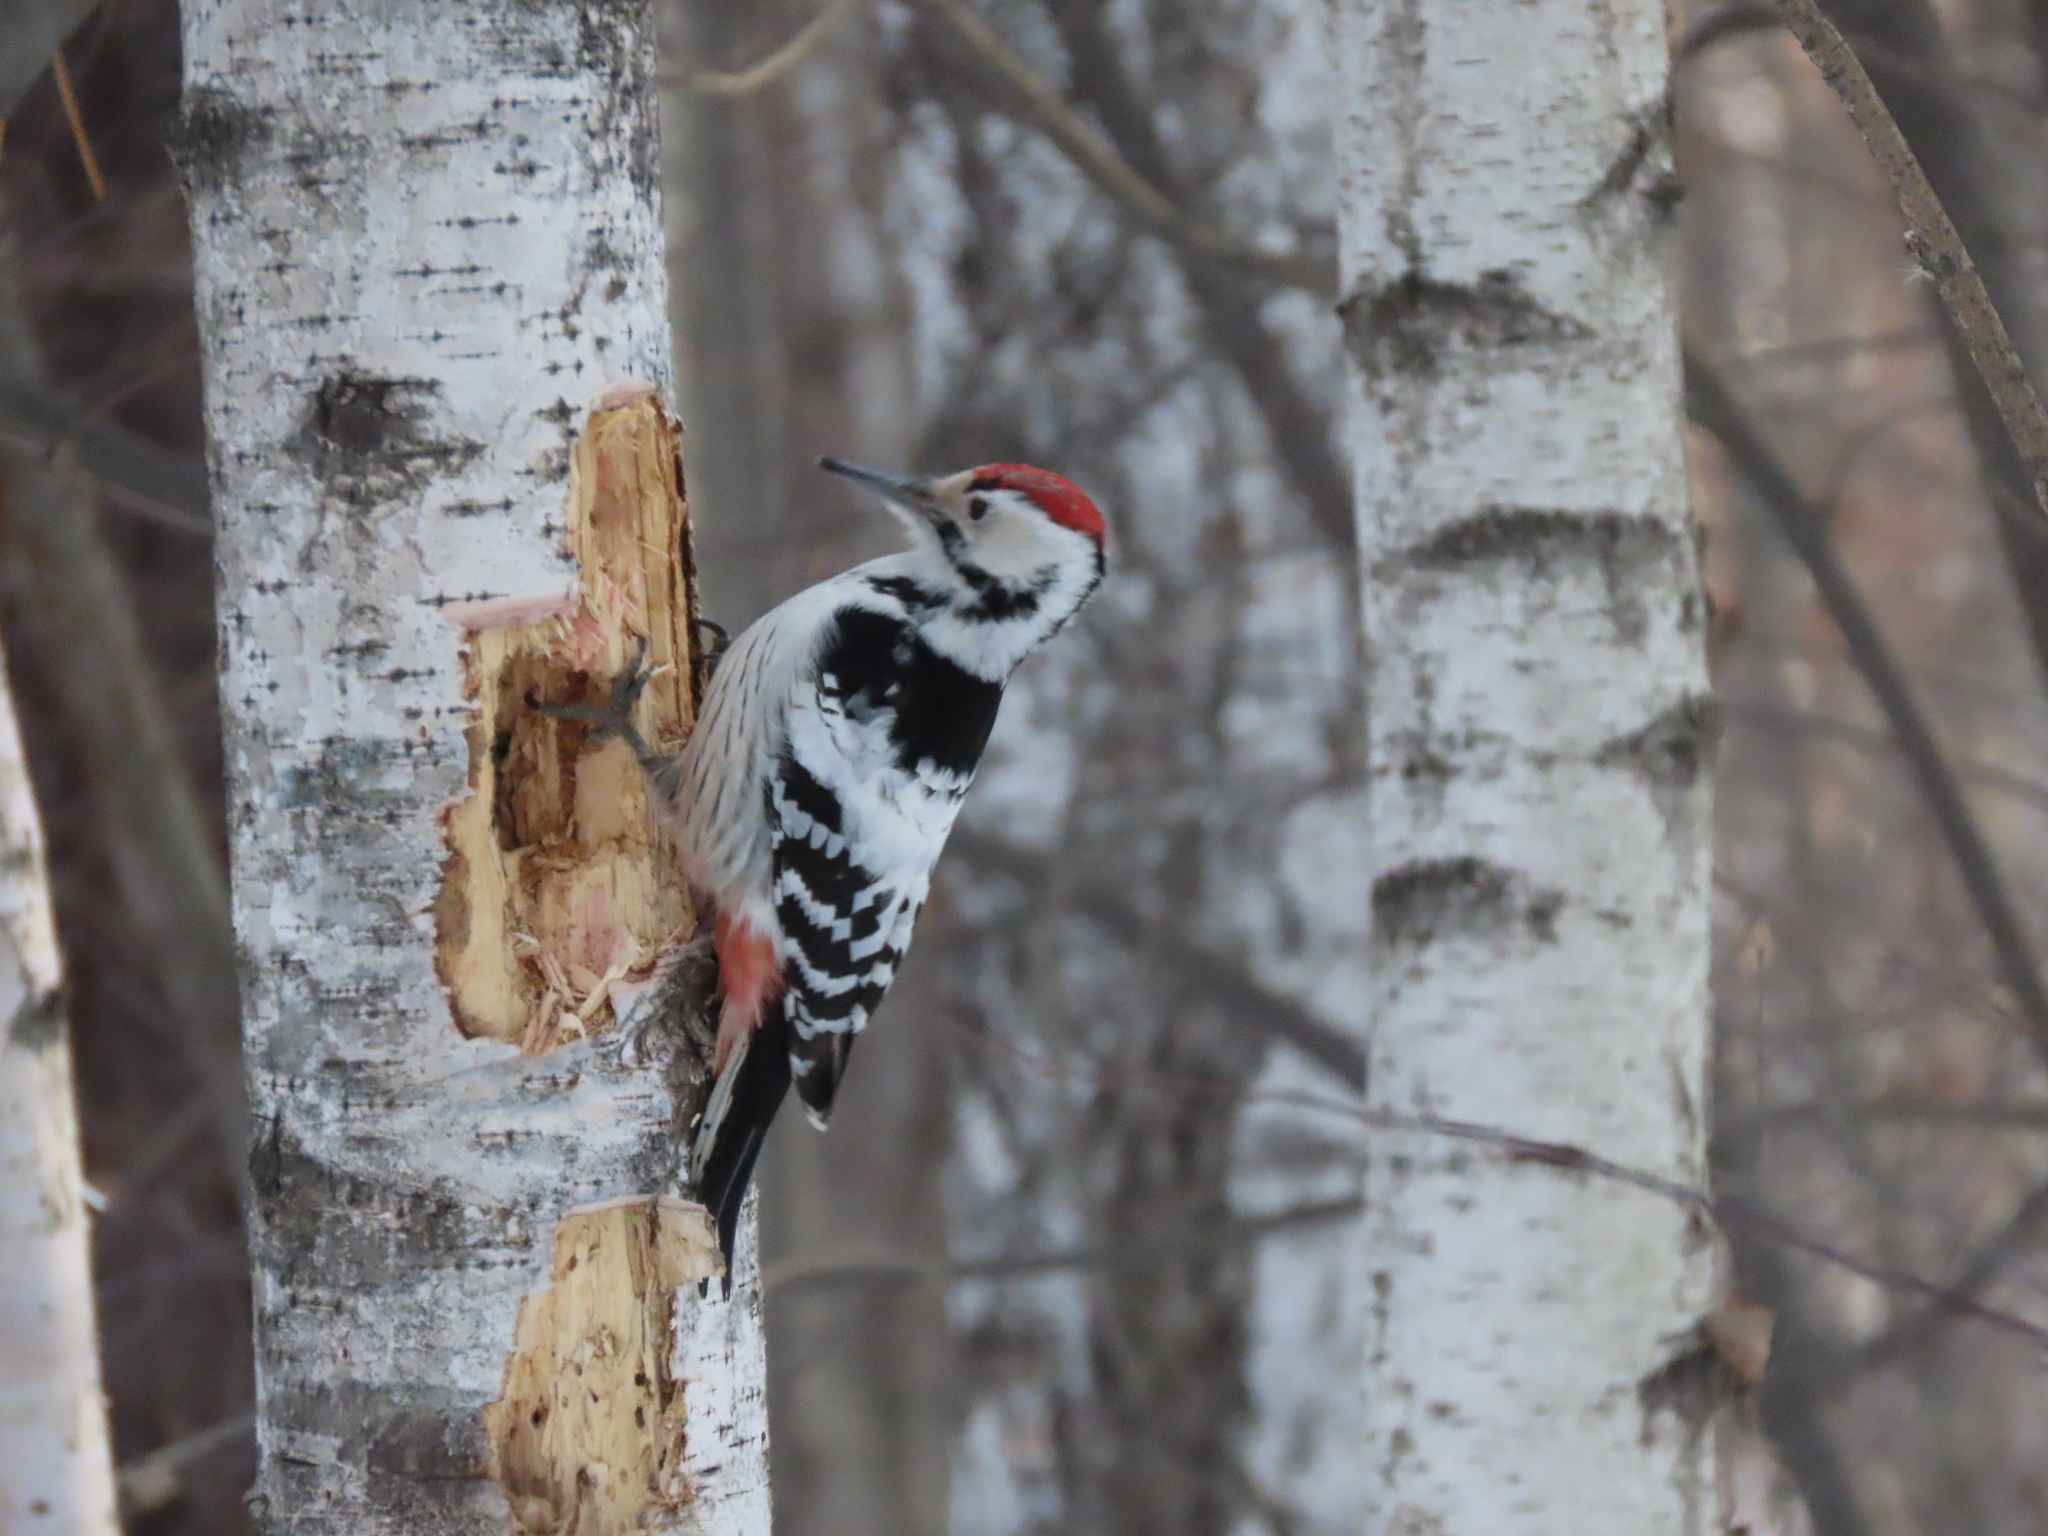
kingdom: Animalia
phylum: Chordata
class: Aves
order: Piciformes
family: Picidae
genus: Dendrocopos
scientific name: Dendrocopos leucotos
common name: White-backed woodpecker
